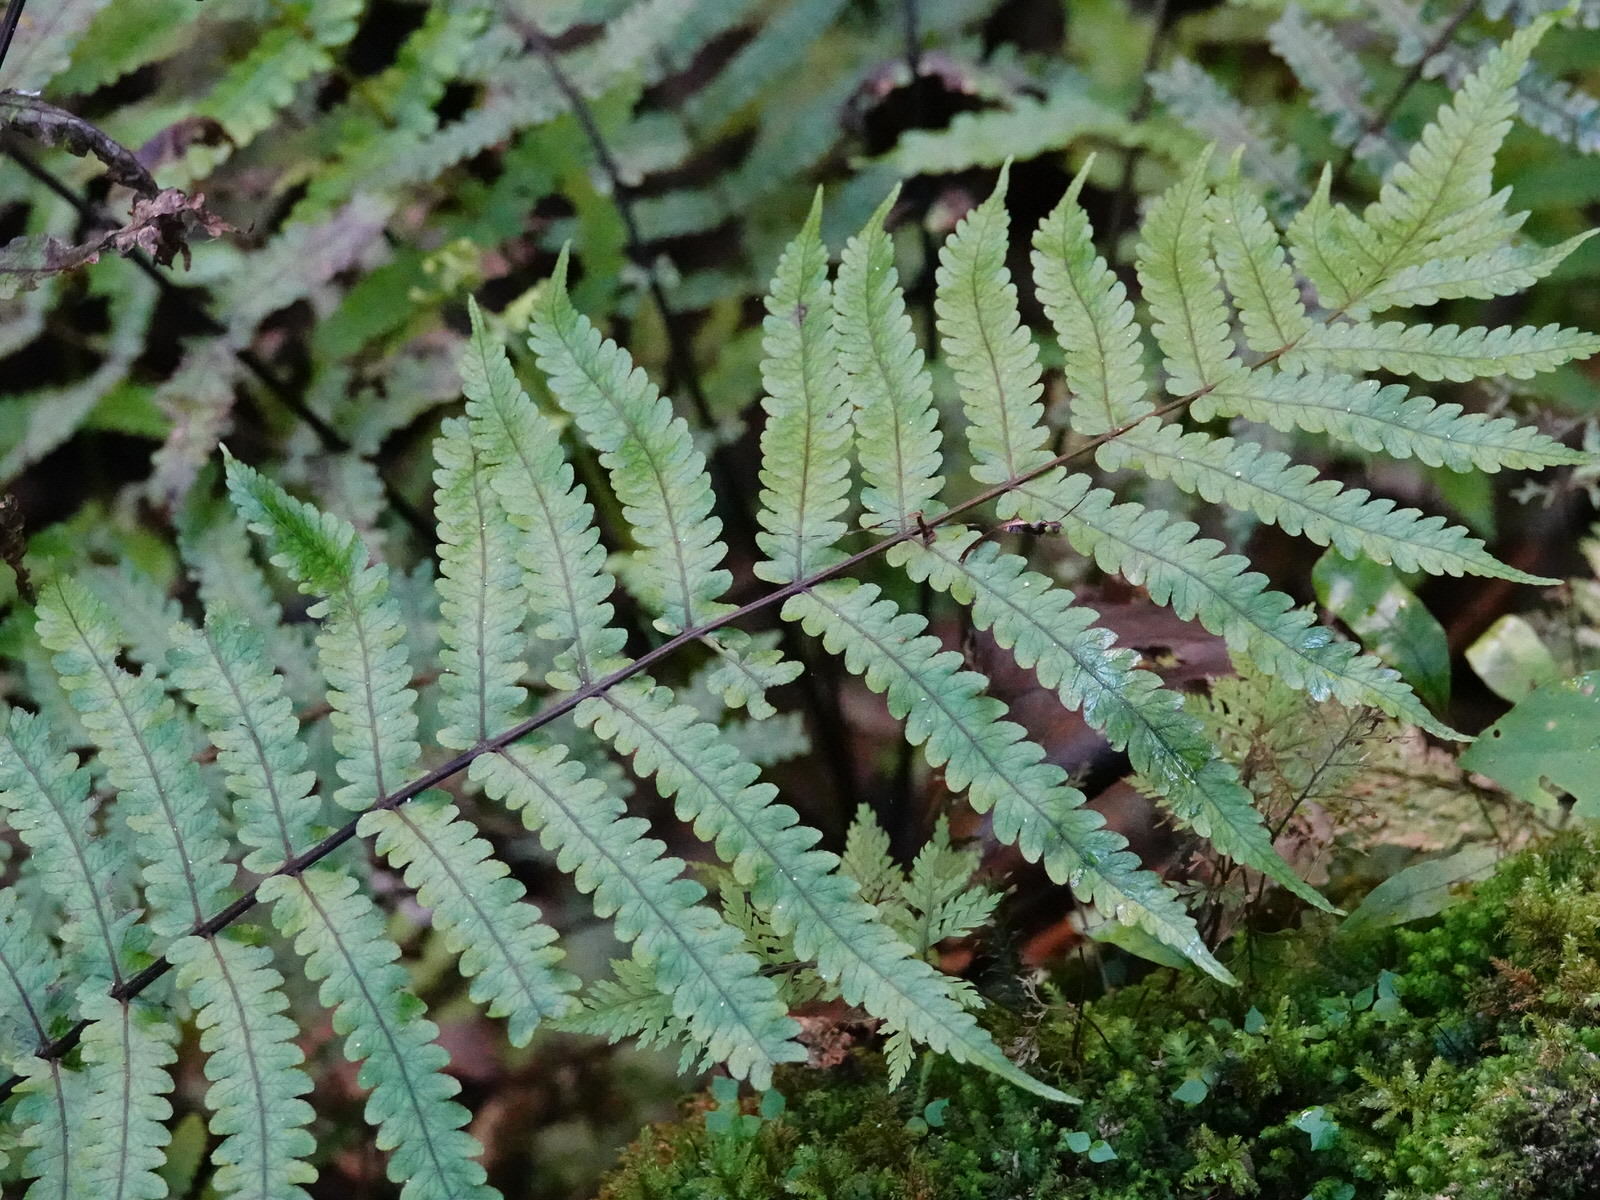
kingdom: Plantae
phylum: Tracheophyta
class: Polypodiopsida
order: Polypodiales
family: Thelypteridaceae
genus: Pakau
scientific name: Pakau pennigera
